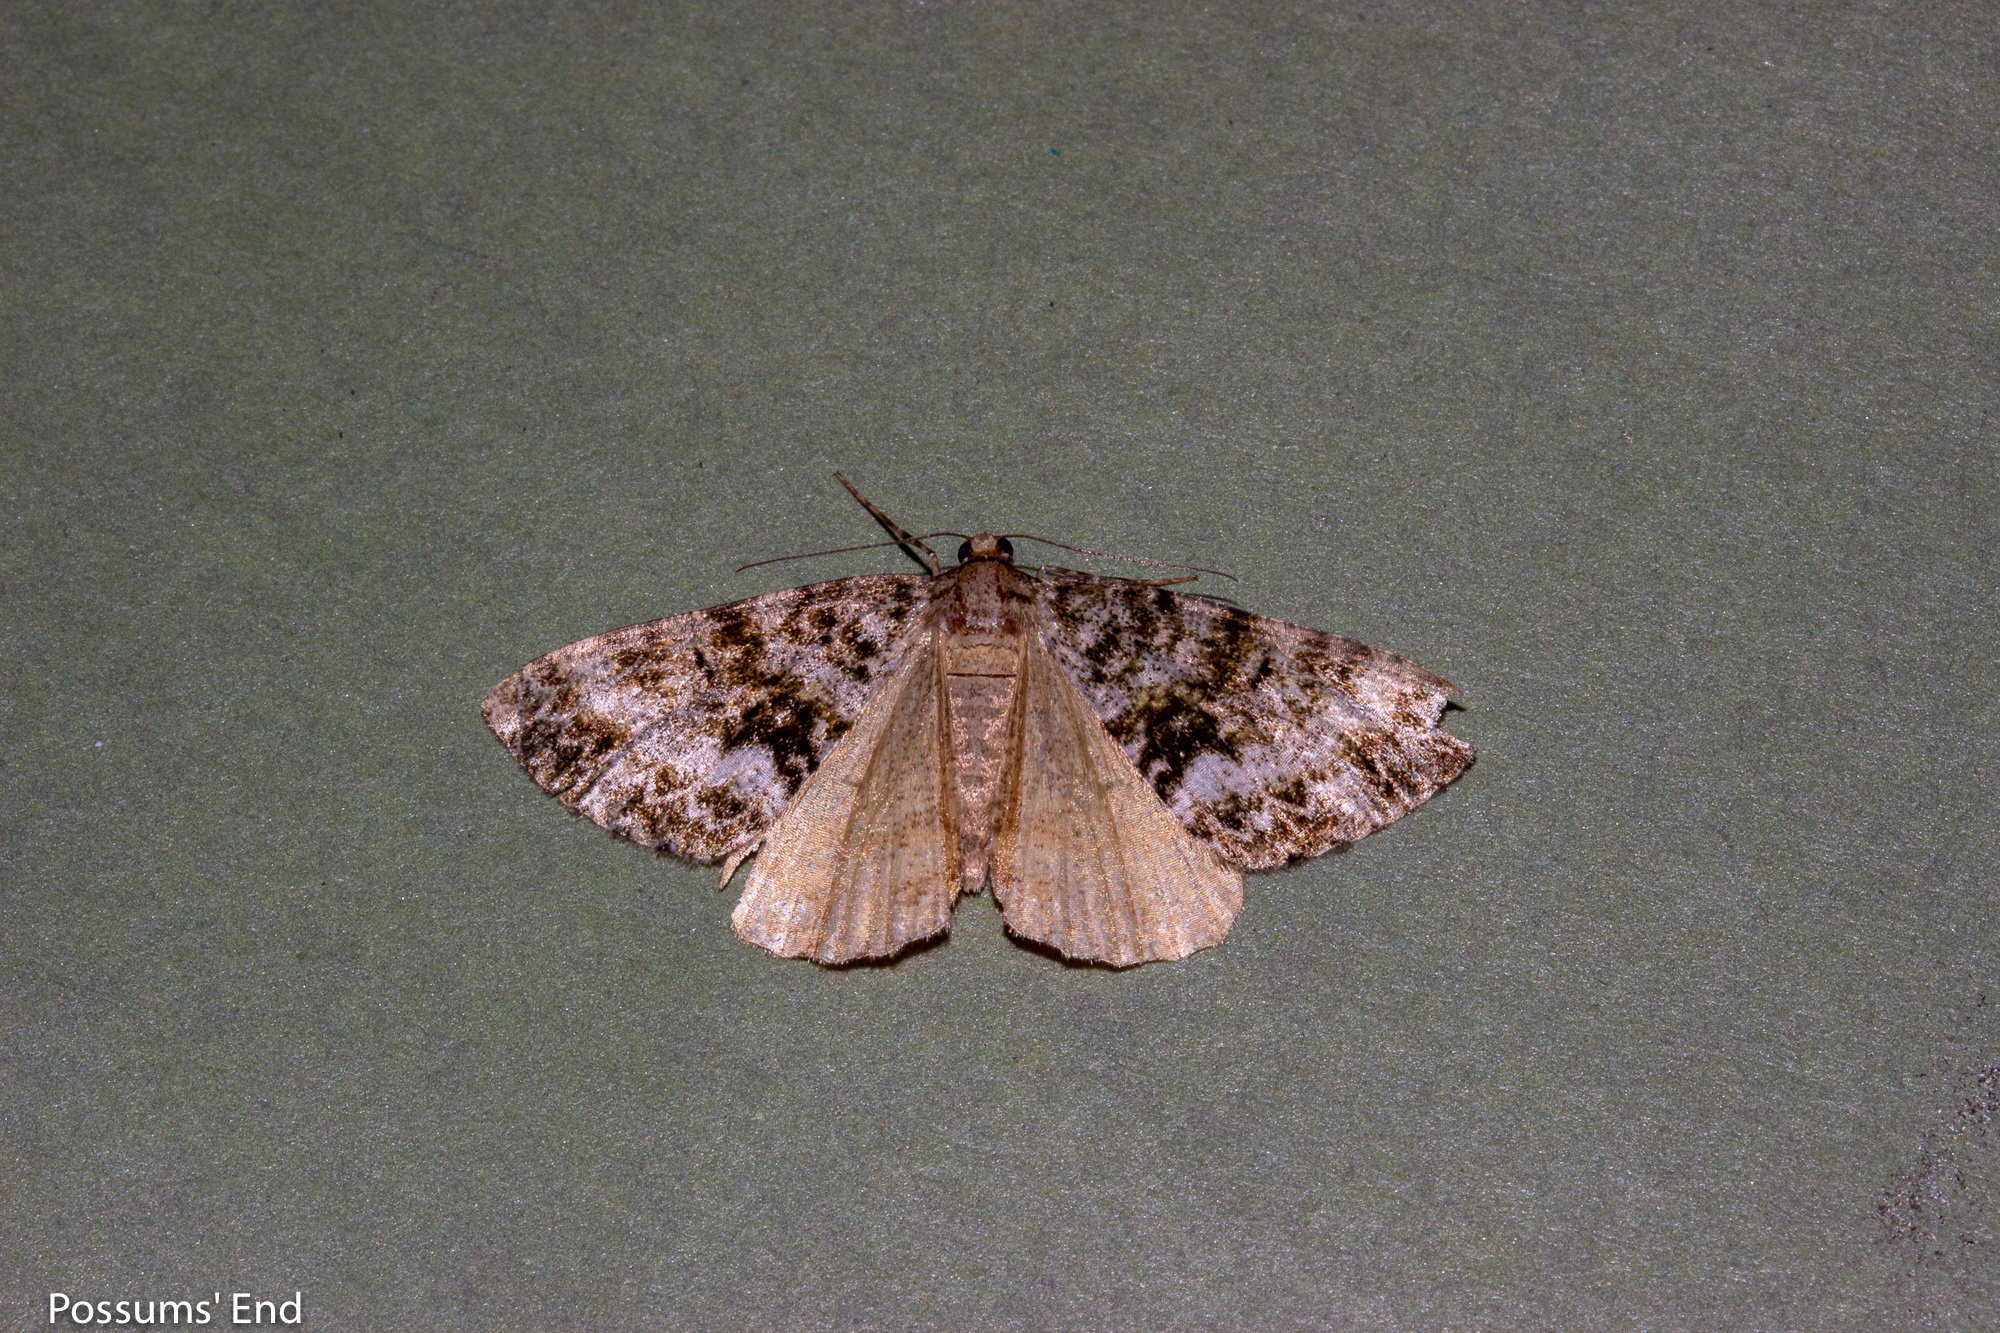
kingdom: Animalia
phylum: Arthropoda
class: Insecta
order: Lepidoptera
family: Geometridae
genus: Pseudocoremia
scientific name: Pseudocoremia lactiflua
